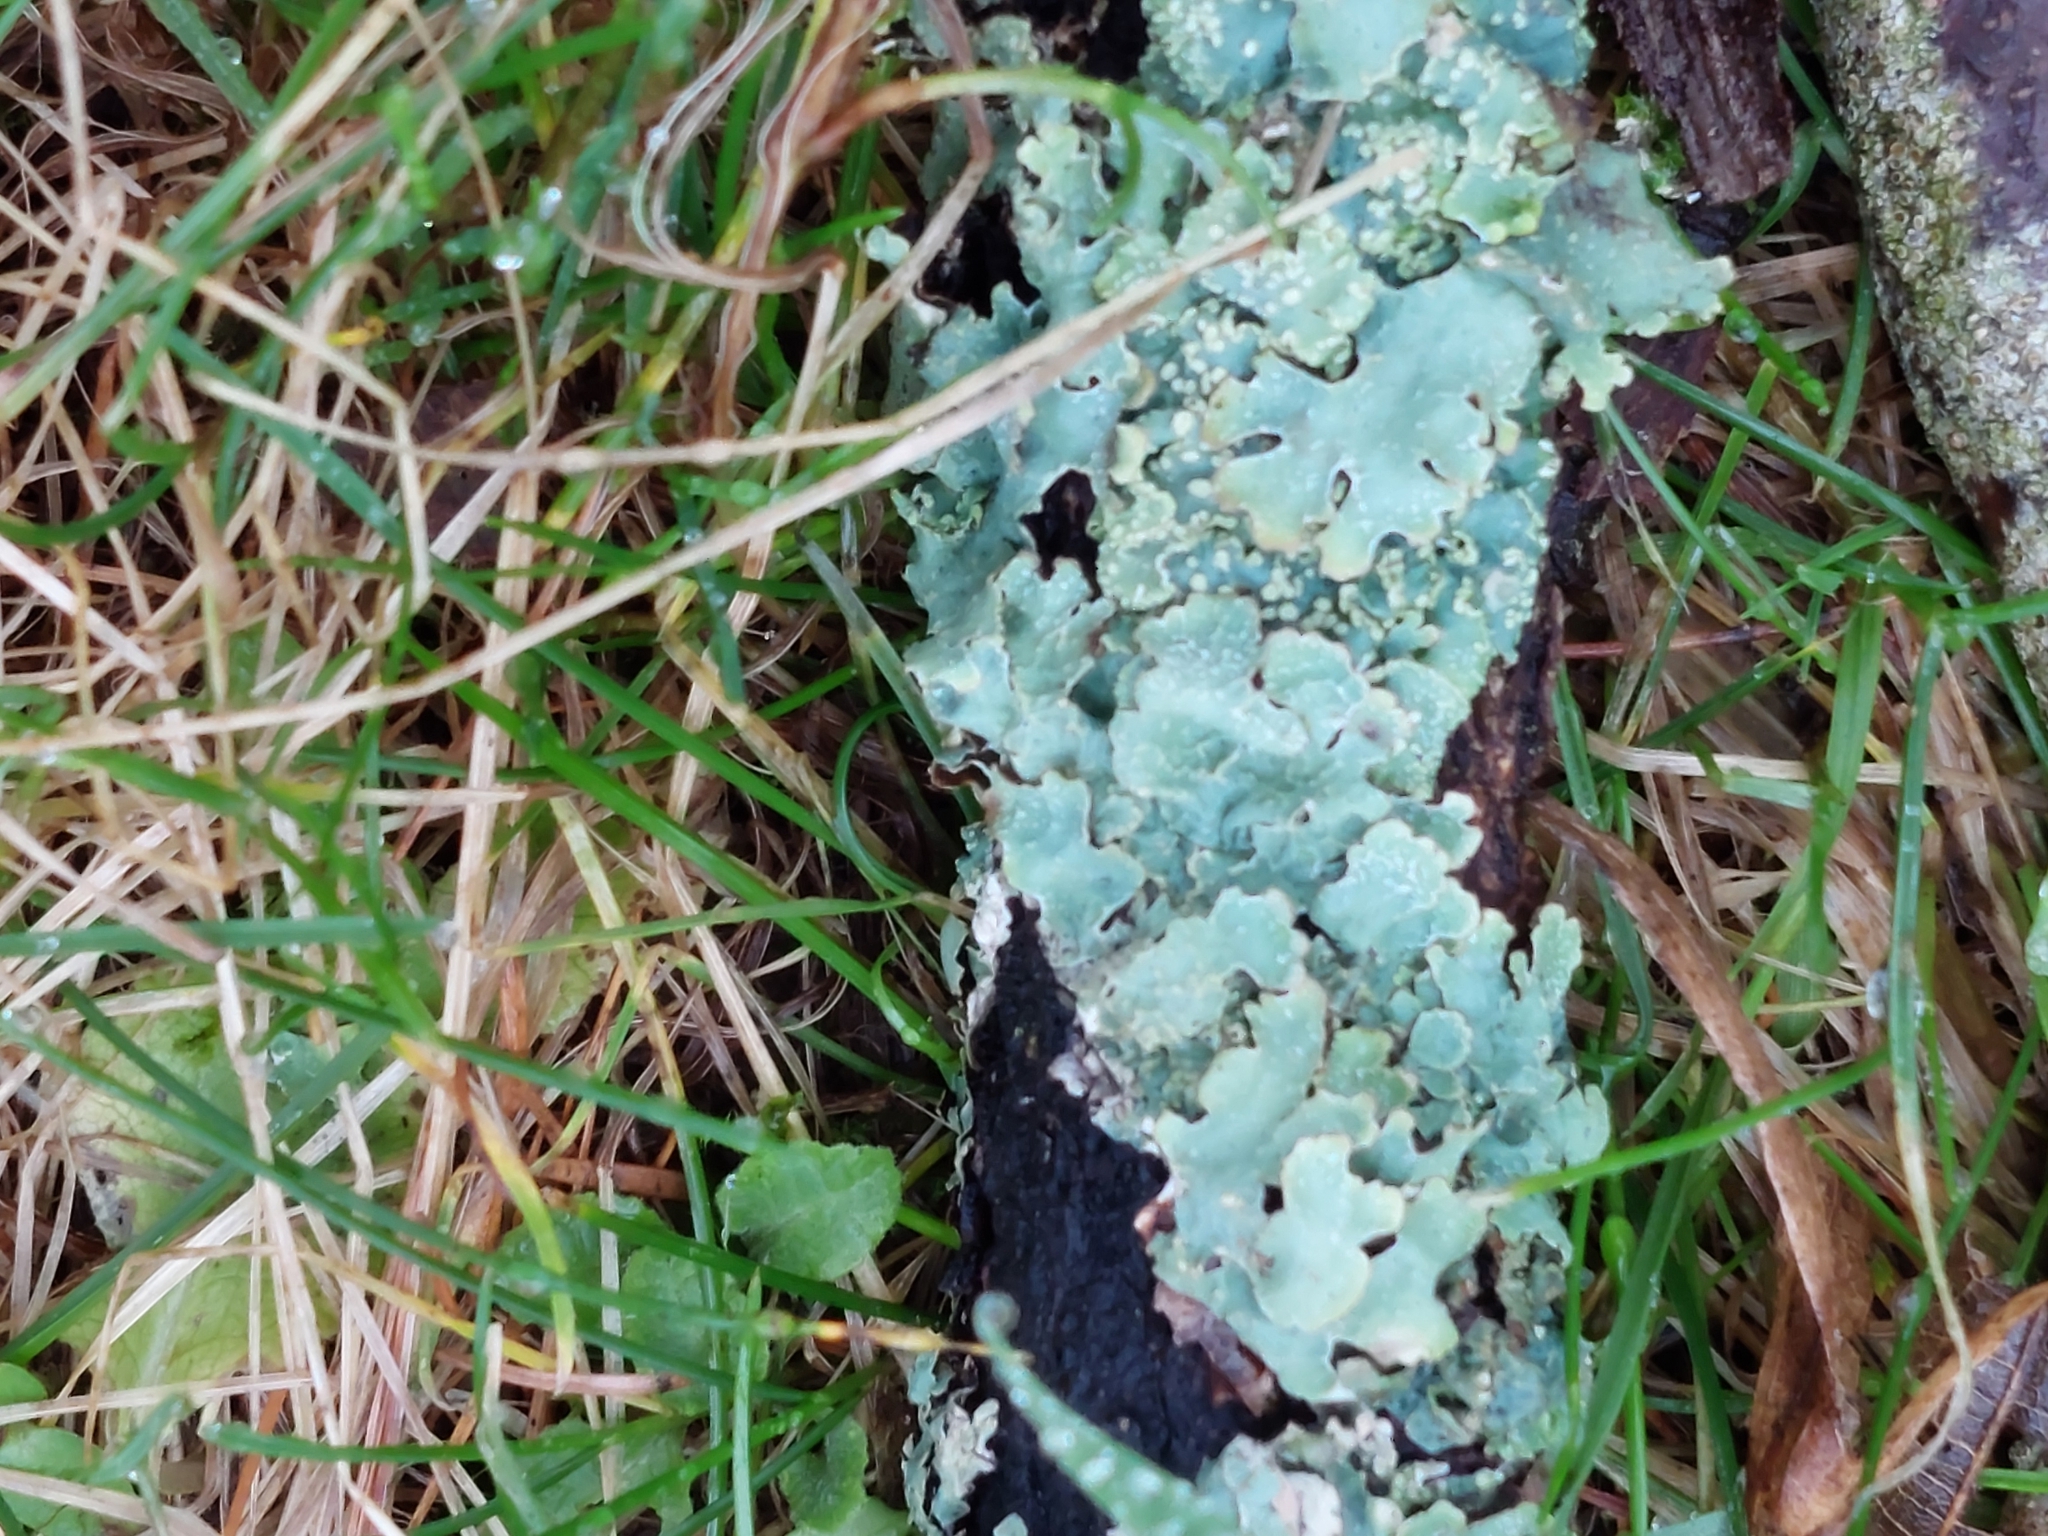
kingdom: Fungi
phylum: Ascomycota
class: Lecanoromycetes
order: Lecanorales
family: Parmeliaceae
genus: Parmelia
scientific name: Parmelia sulcata
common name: Netted shield lichen
